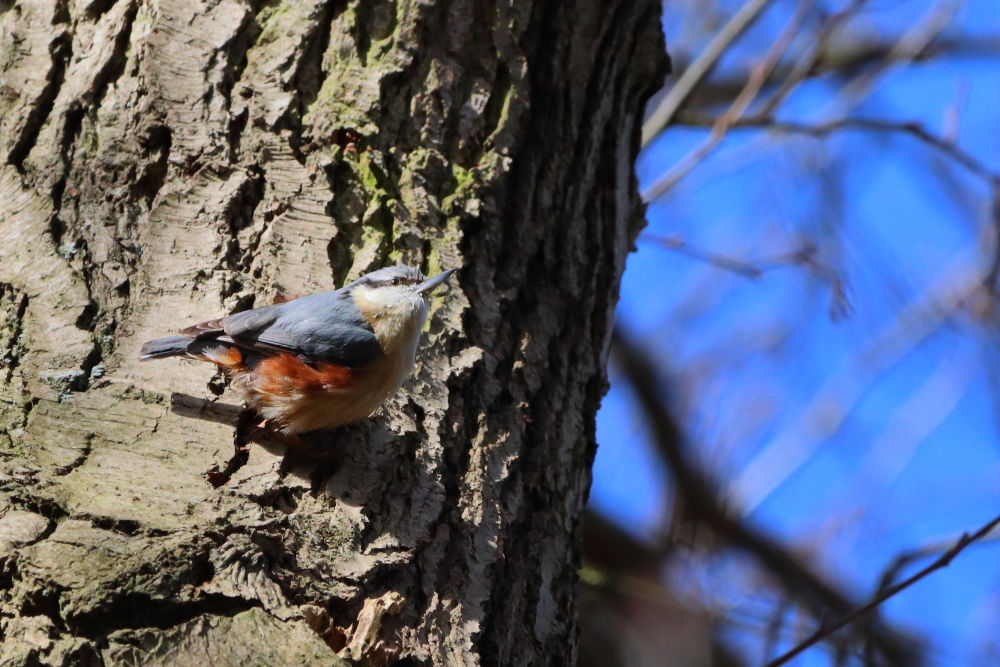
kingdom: Animalia
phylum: Chordata
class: Aves
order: Passeriformes
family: Sittidae
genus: Sitta
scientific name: Sitta europaea
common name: Eurasian nuthatch
